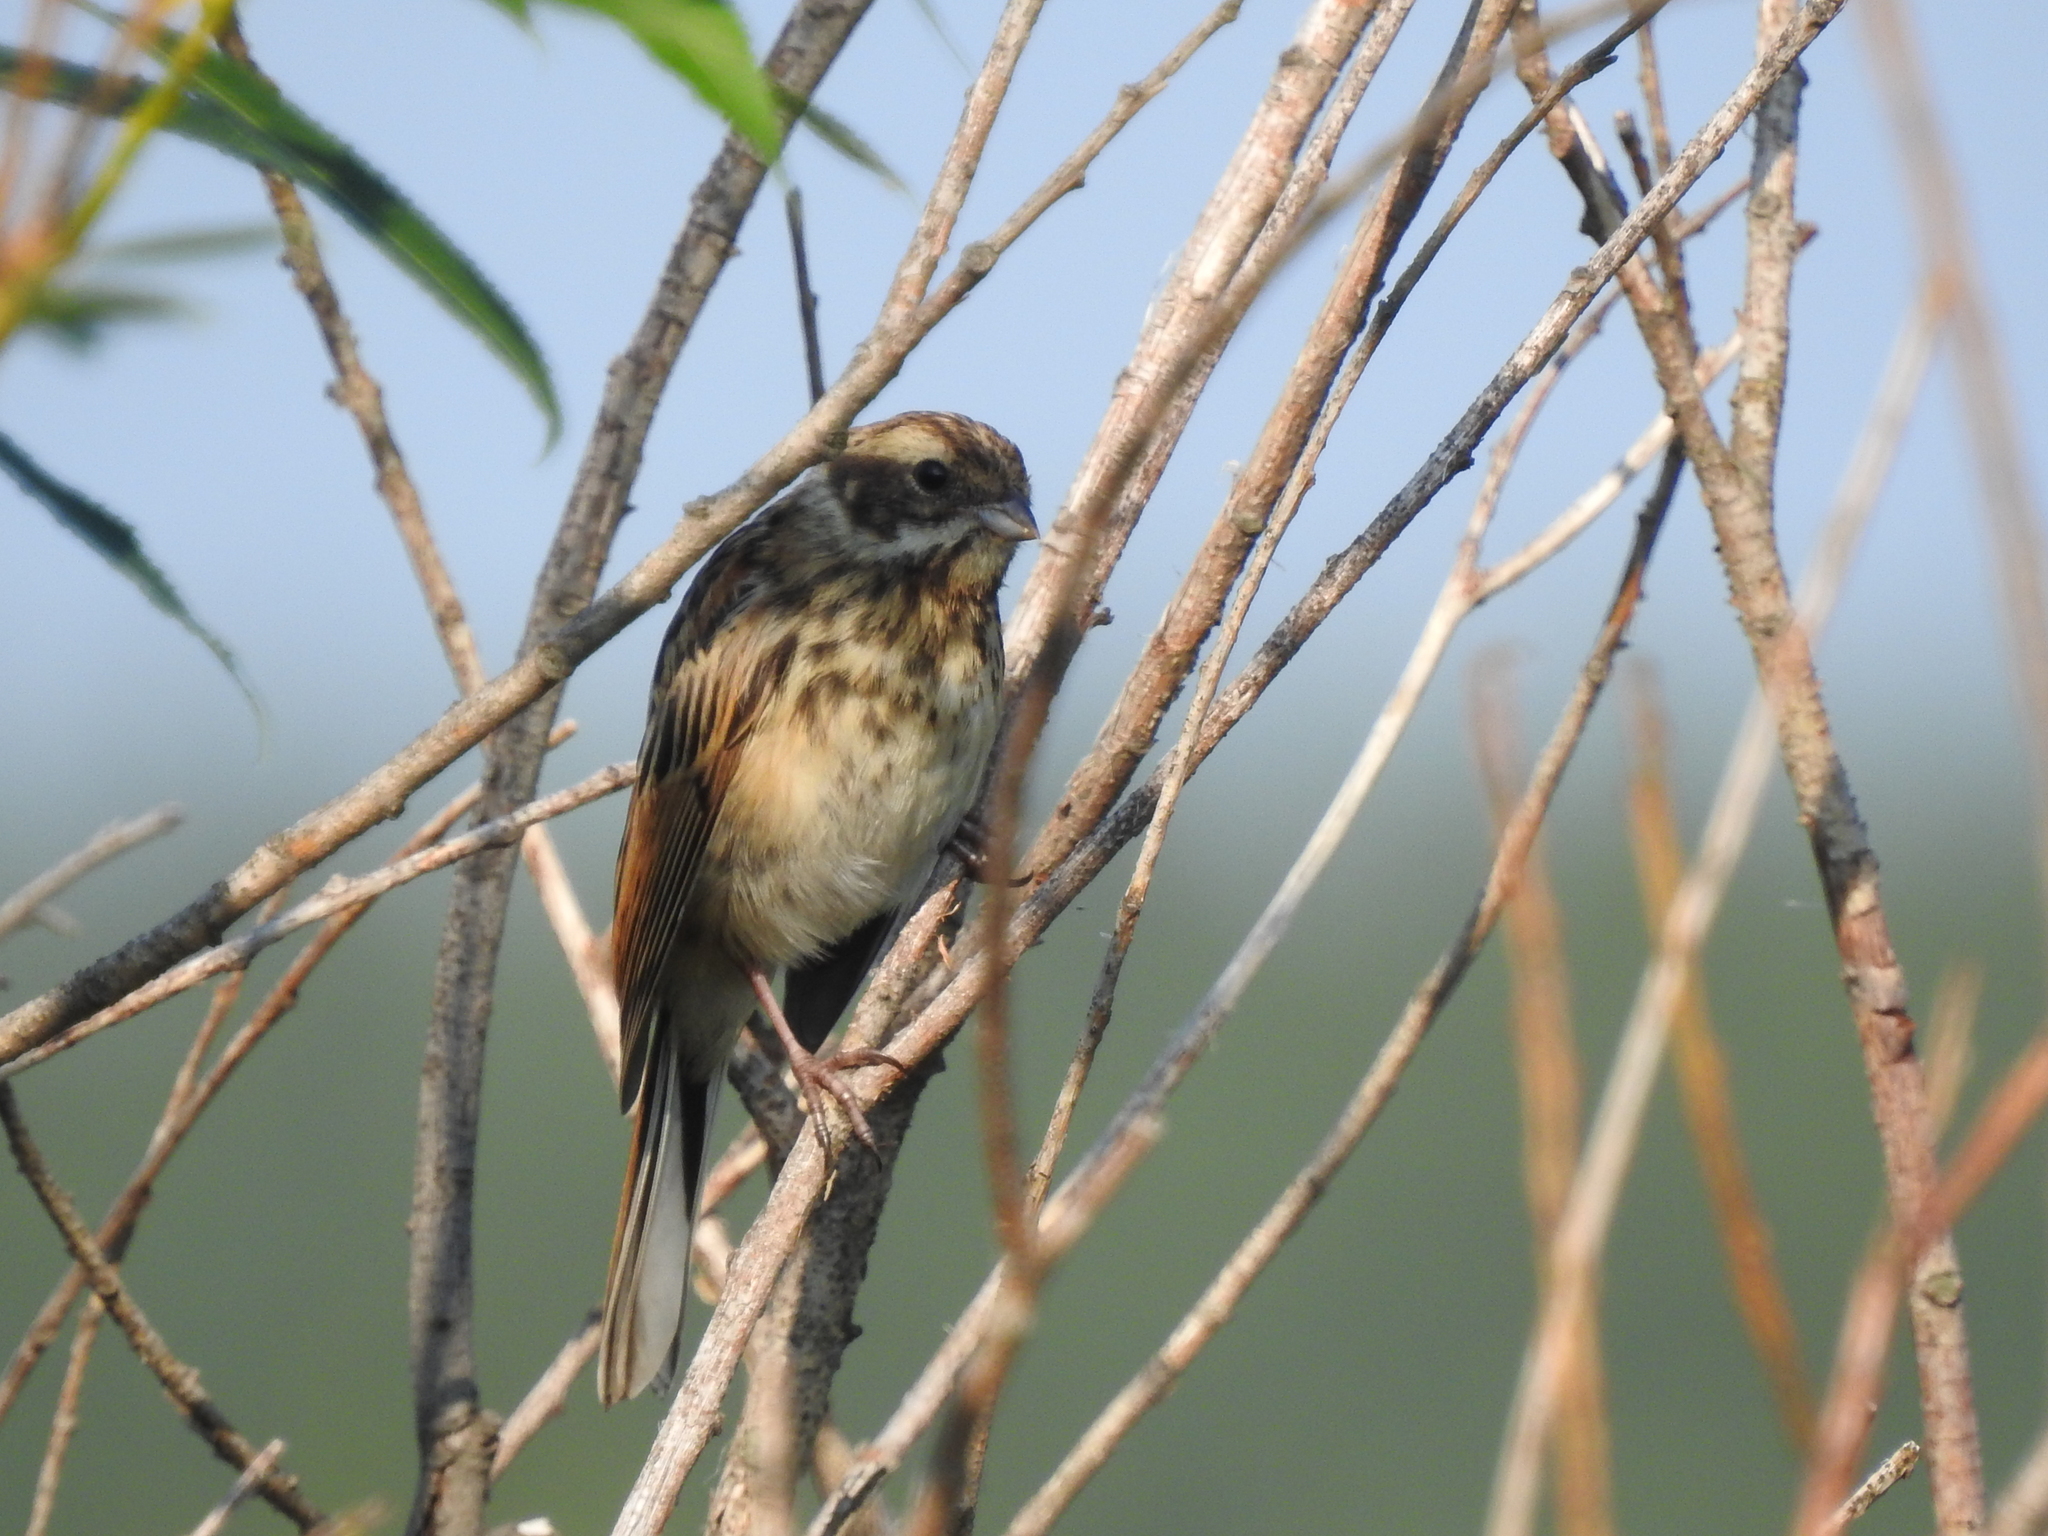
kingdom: Animalia
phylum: Chordata
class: Aves
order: Passeriformes
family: Emberizidae
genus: Emberiza
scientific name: Emberiza schoeniclus
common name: Reed bunting
